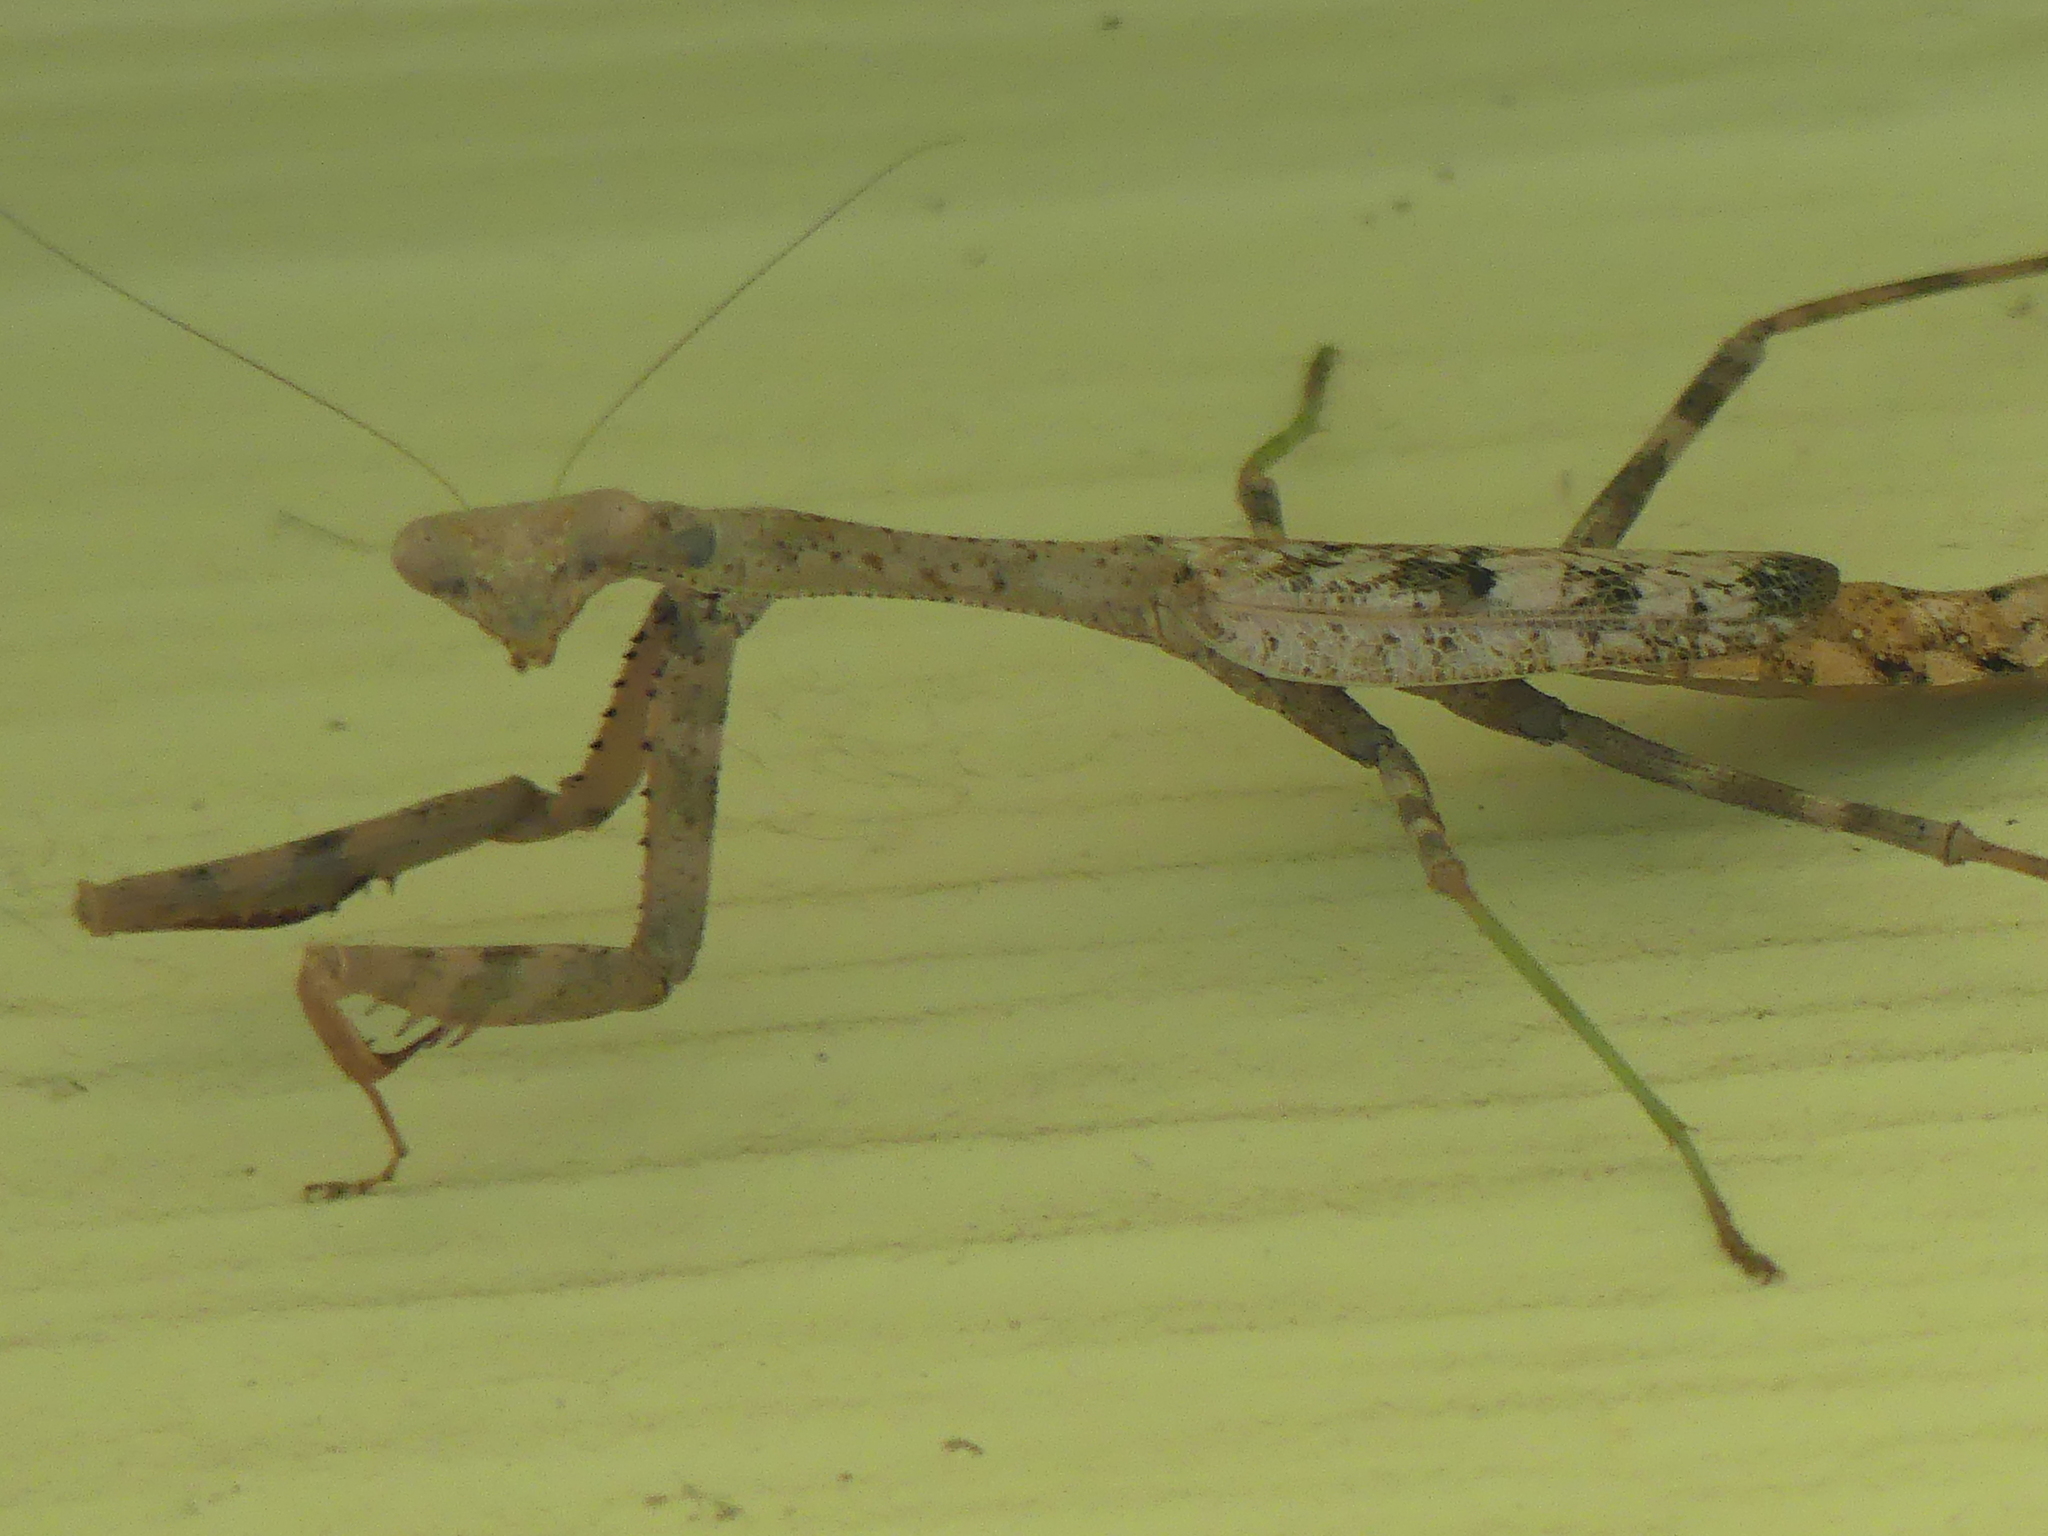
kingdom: Animalia
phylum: Arthropoda
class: Insecta
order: Mantodea
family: Mantidae
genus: Stagmomantis
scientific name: Stagmomantis carolina
